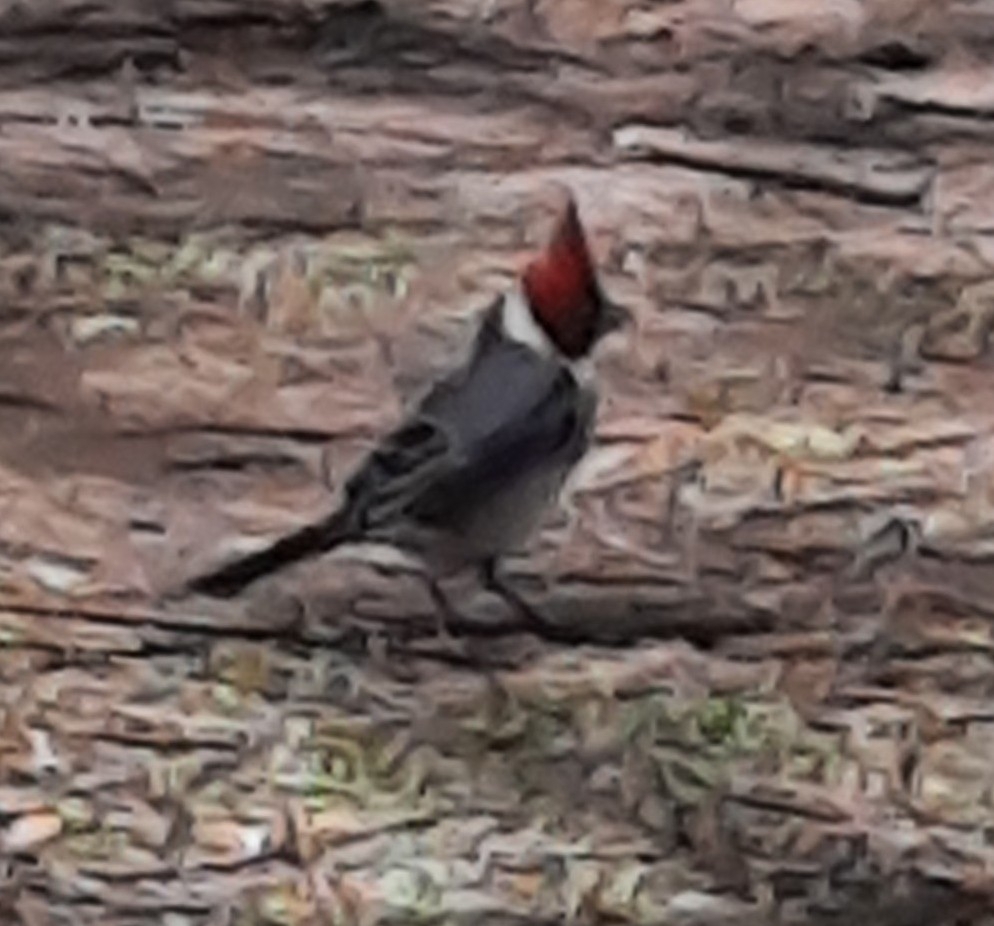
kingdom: Animalia
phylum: Chordata
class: Aves
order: Passeriformes
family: Thraupidae
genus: Paroaria
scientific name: Paroaria coronata
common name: Red-crested cardinal
